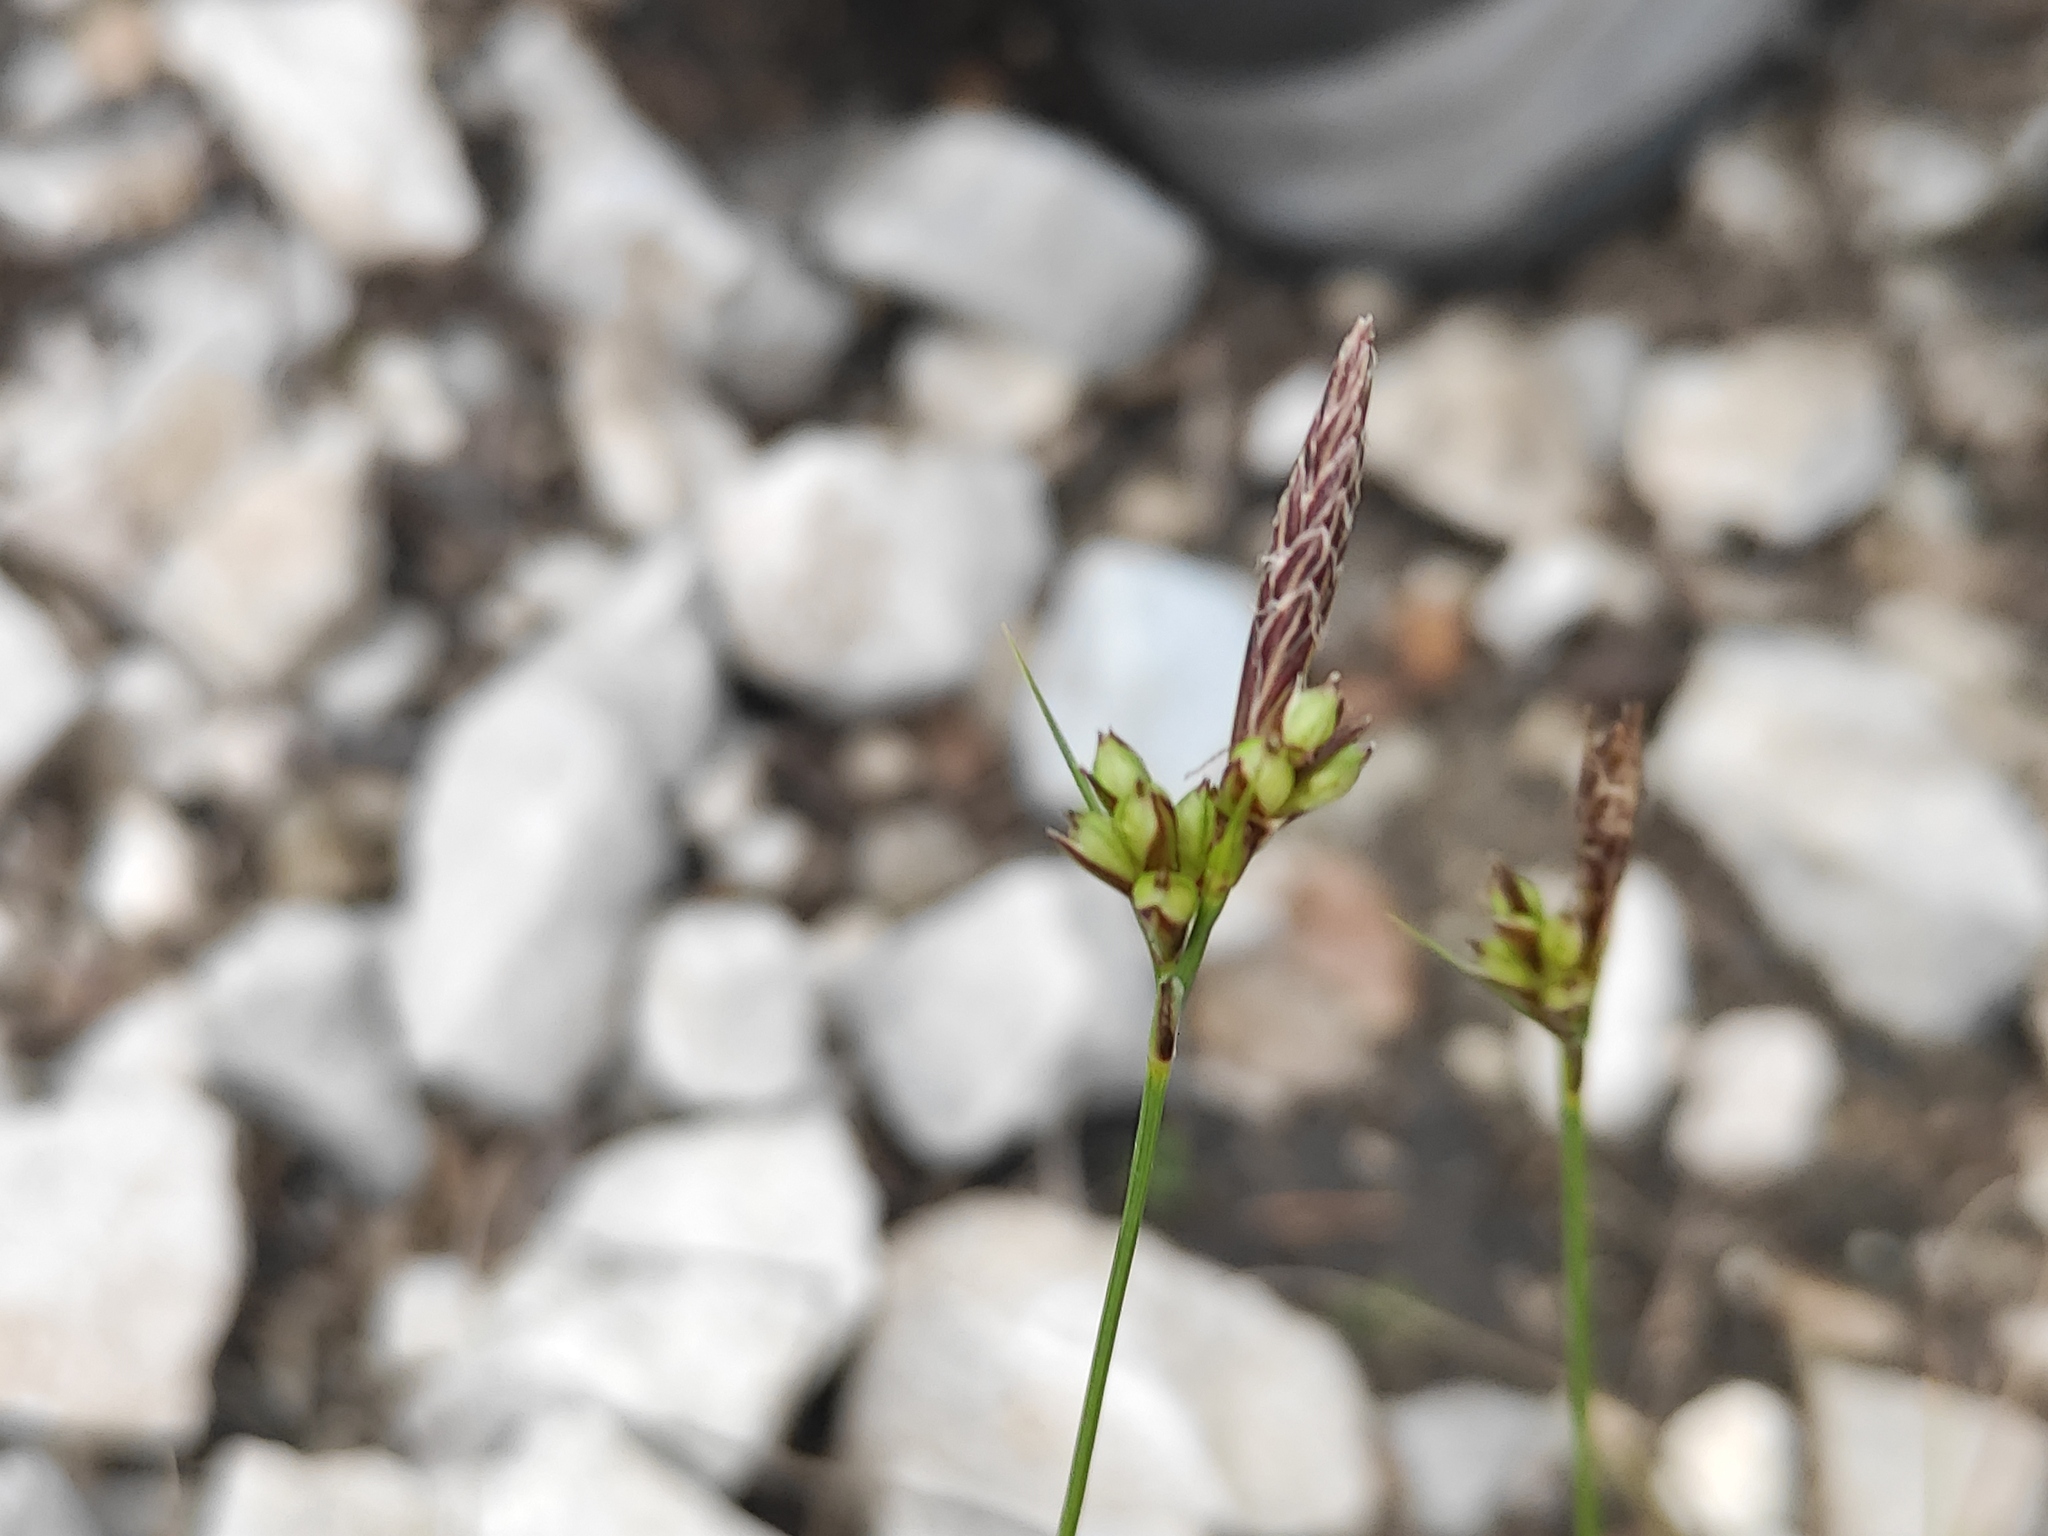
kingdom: Plantae
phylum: Tracheophyta
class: Liliopsida
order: Poales
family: Cyperaceae
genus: Carex
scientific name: Carex halleriana
